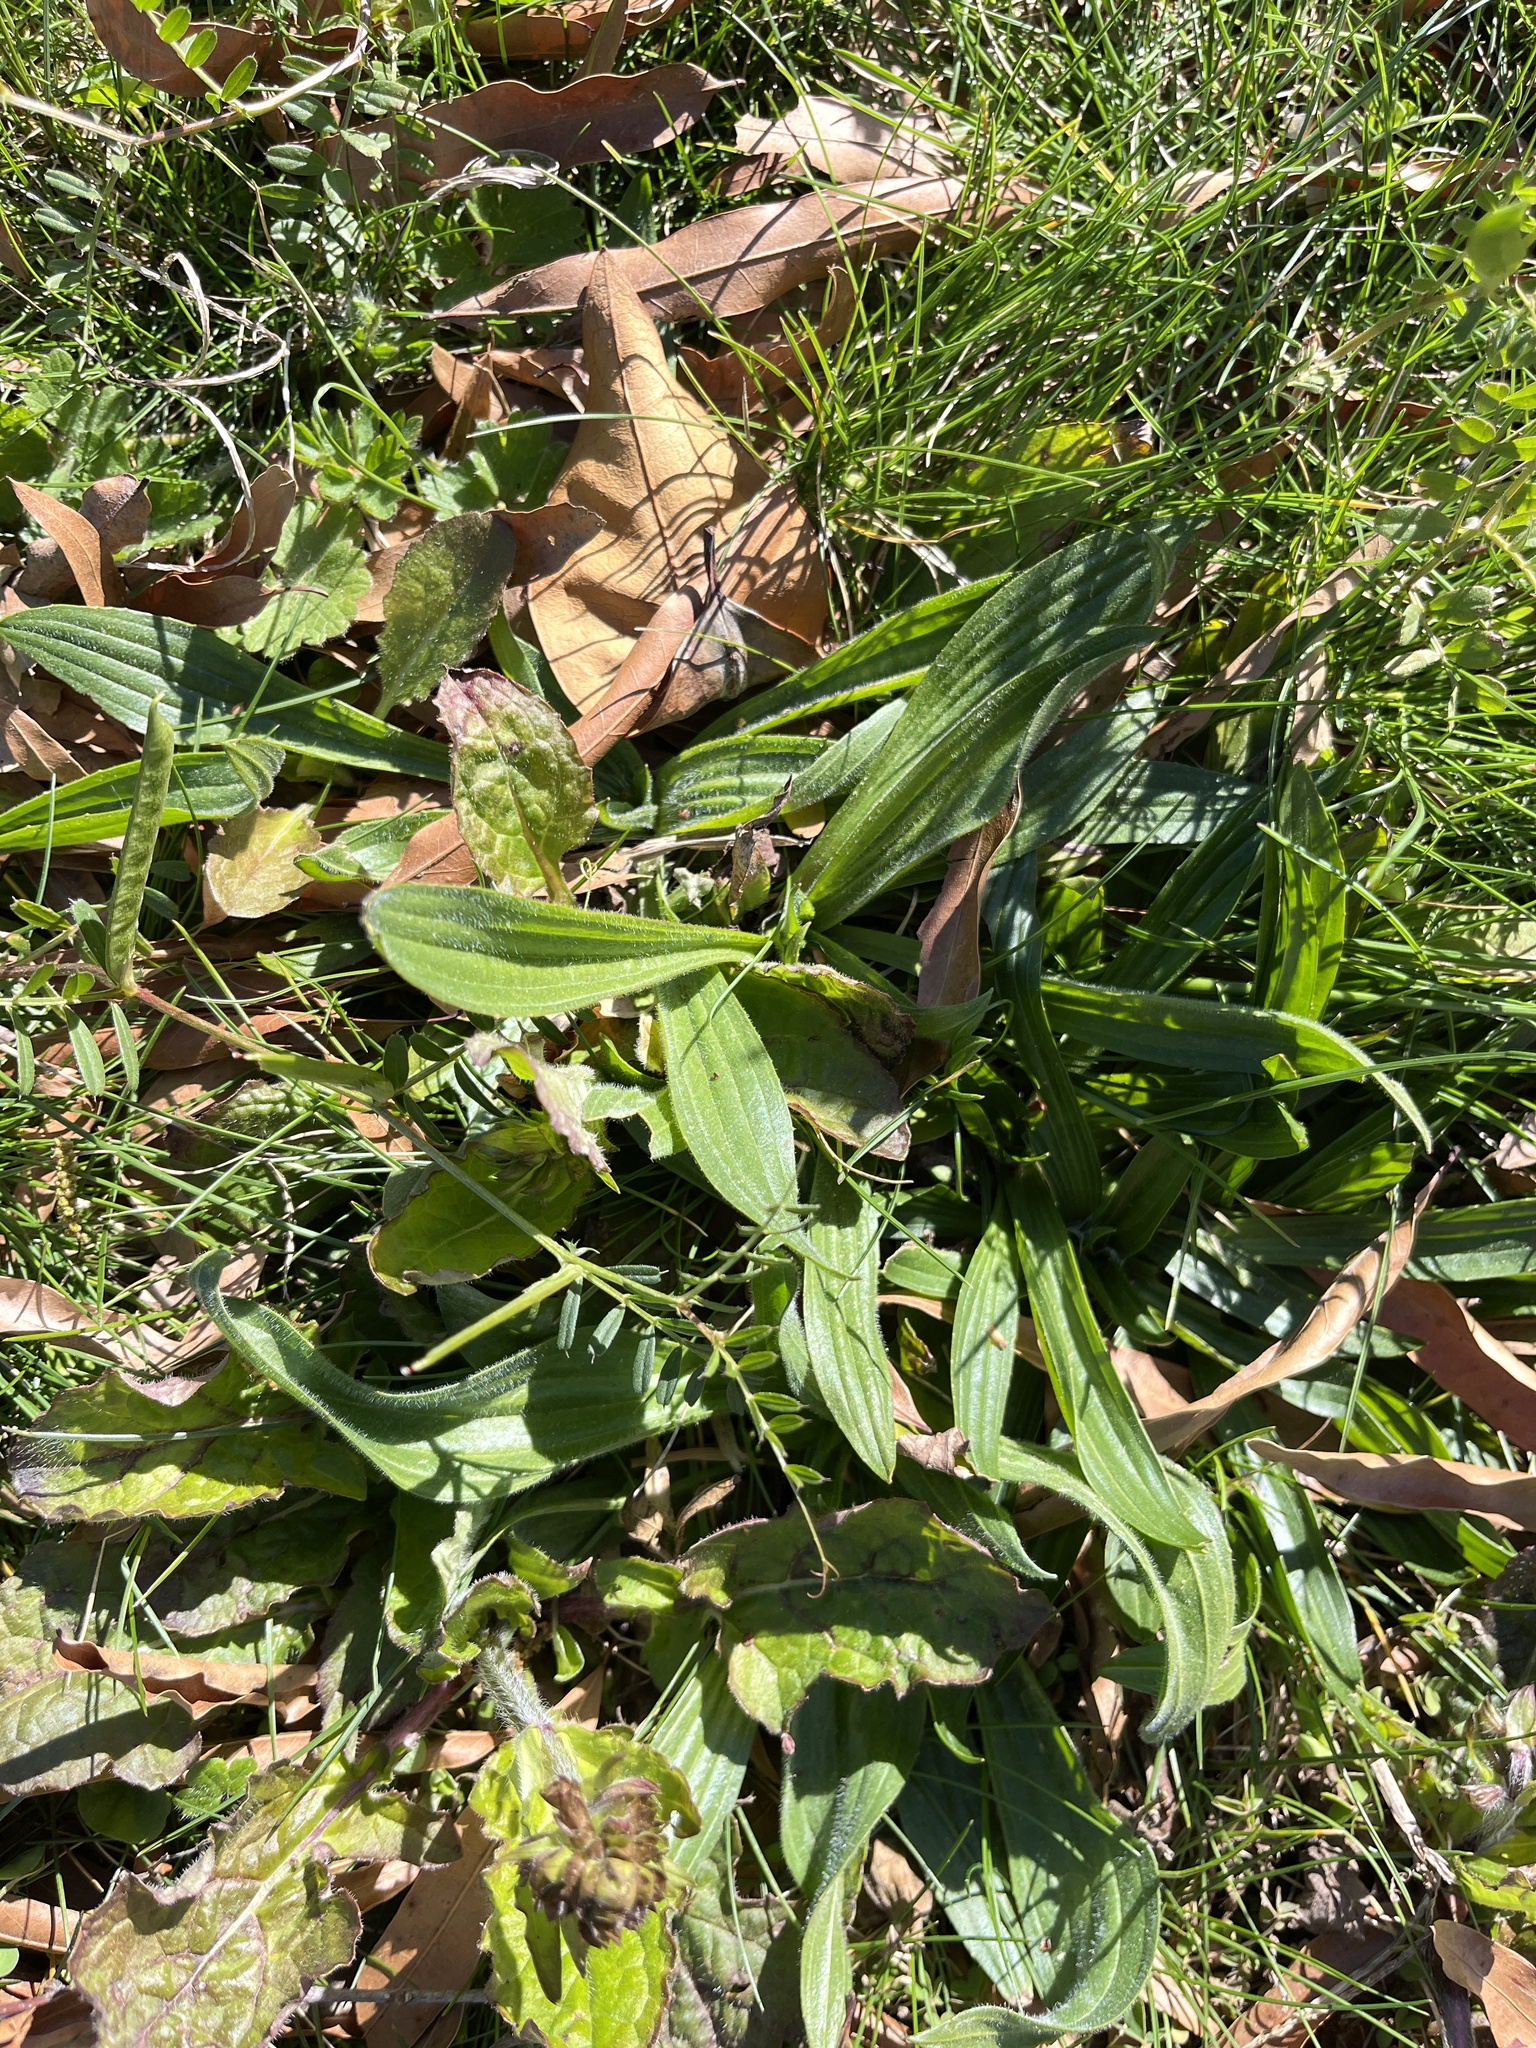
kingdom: Plantae
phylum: Tracheophyta
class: Magnoliopsida
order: Lamiales
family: Plantaginaceae
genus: Plantago
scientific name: Plantago lanceolata
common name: Ribwort plantain
